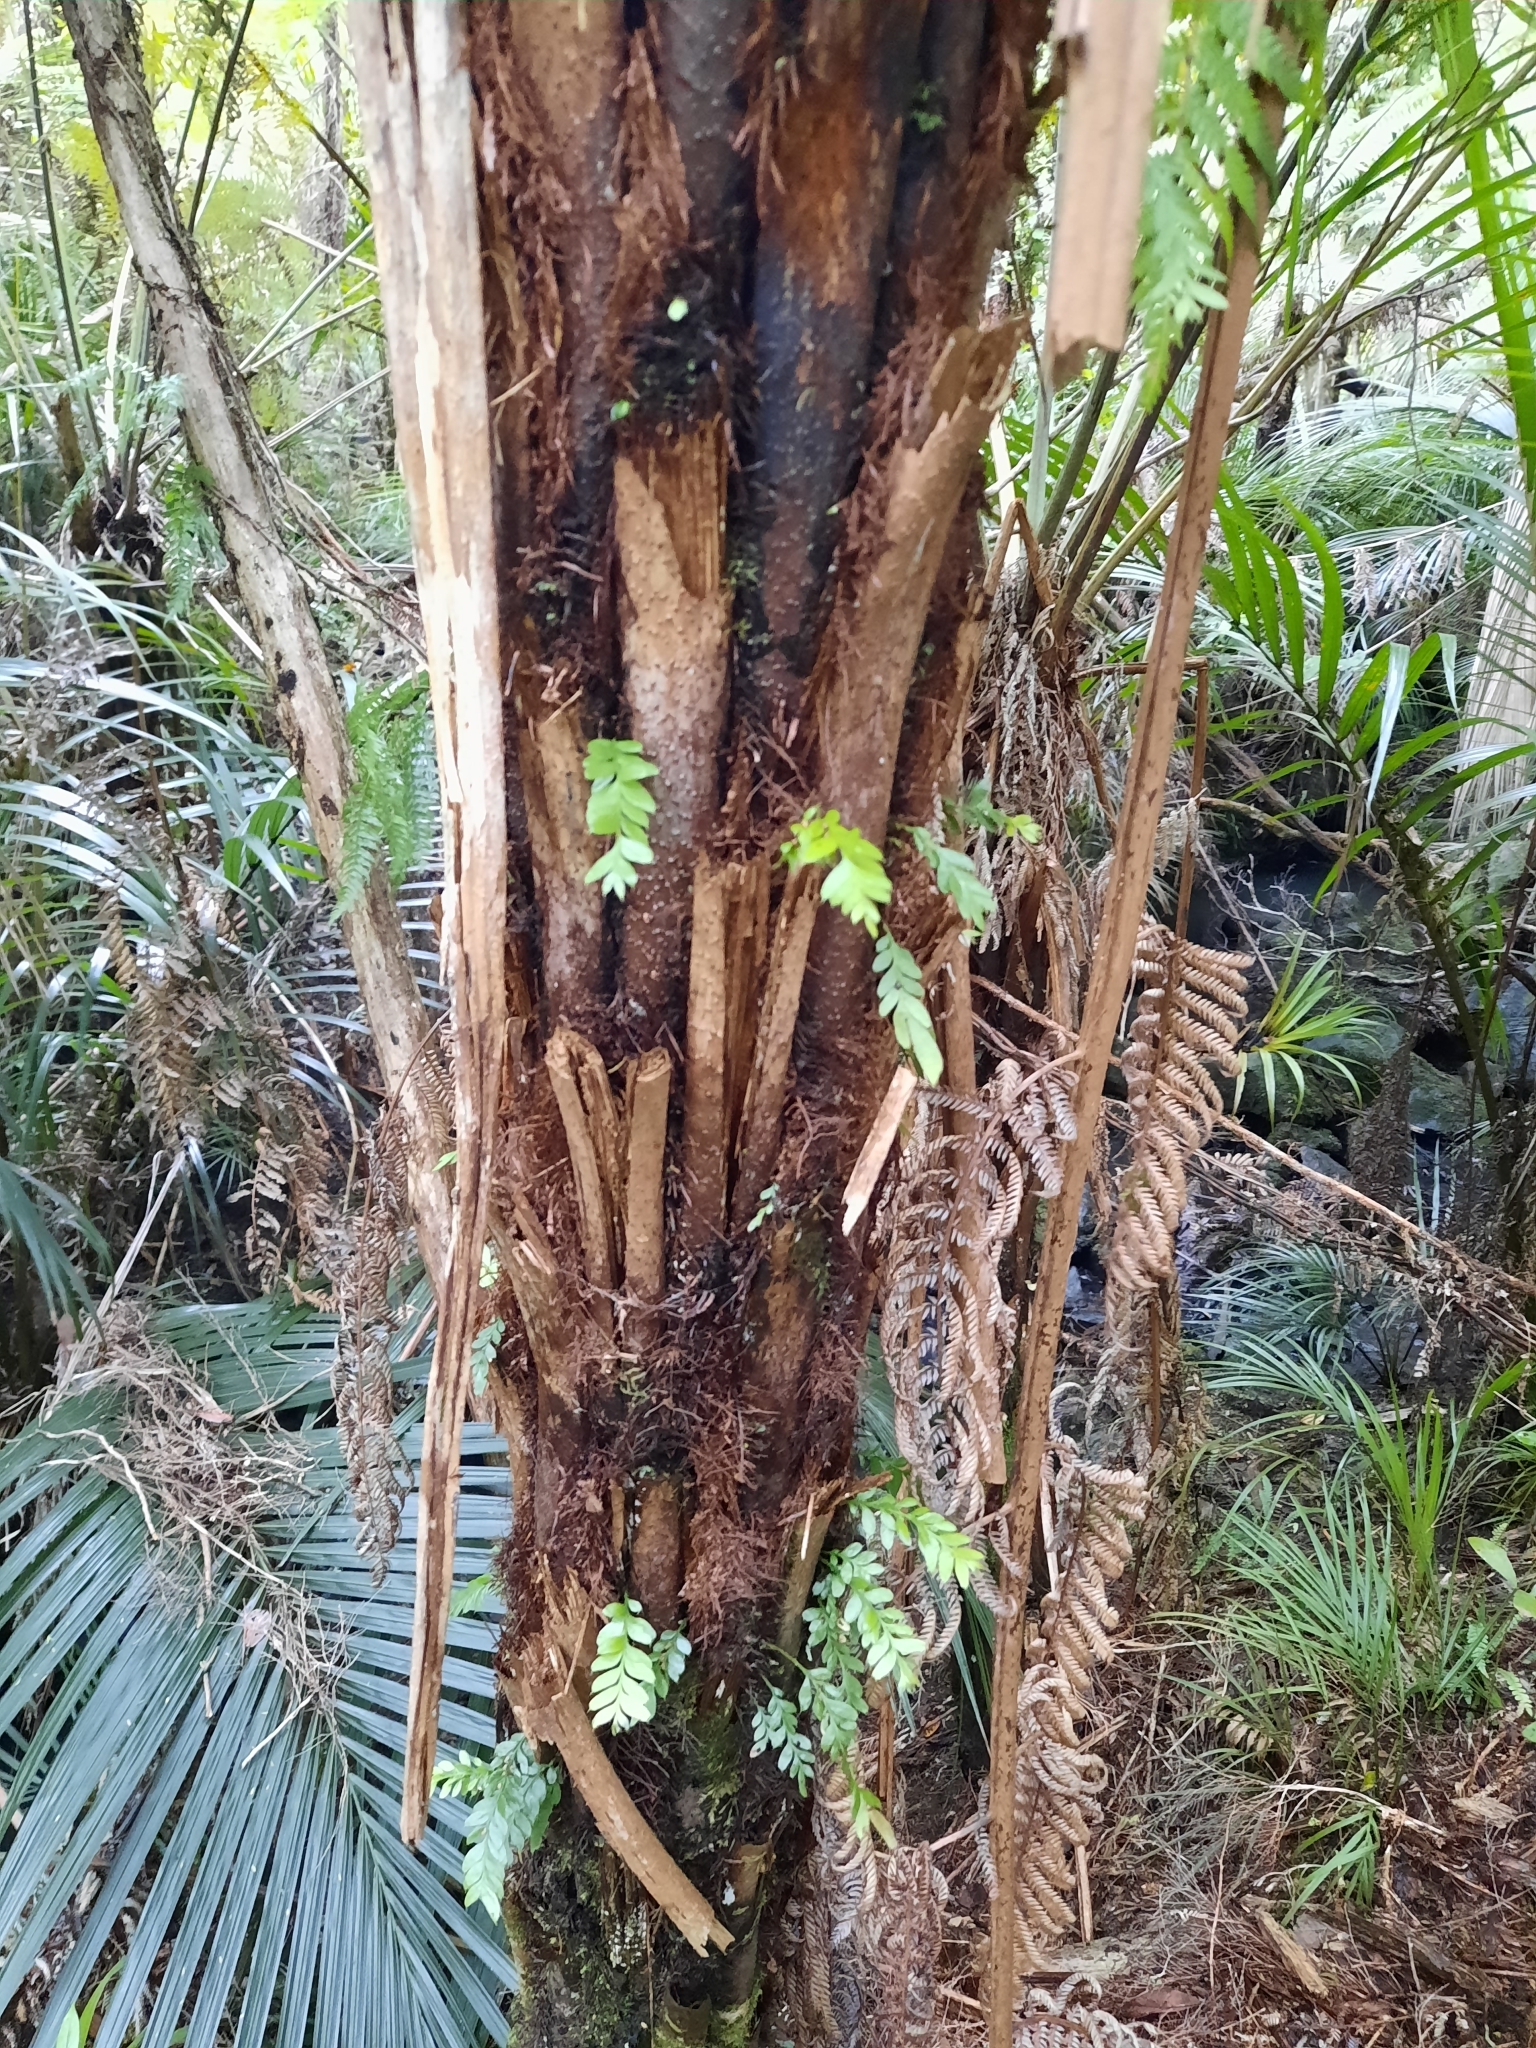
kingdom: Plantae
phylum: Tracheophyta
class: Polypodiopsida
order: Psilotales
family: Psilotaceae
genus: Tmesipteris
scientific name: Tmesipteris lanceolata
